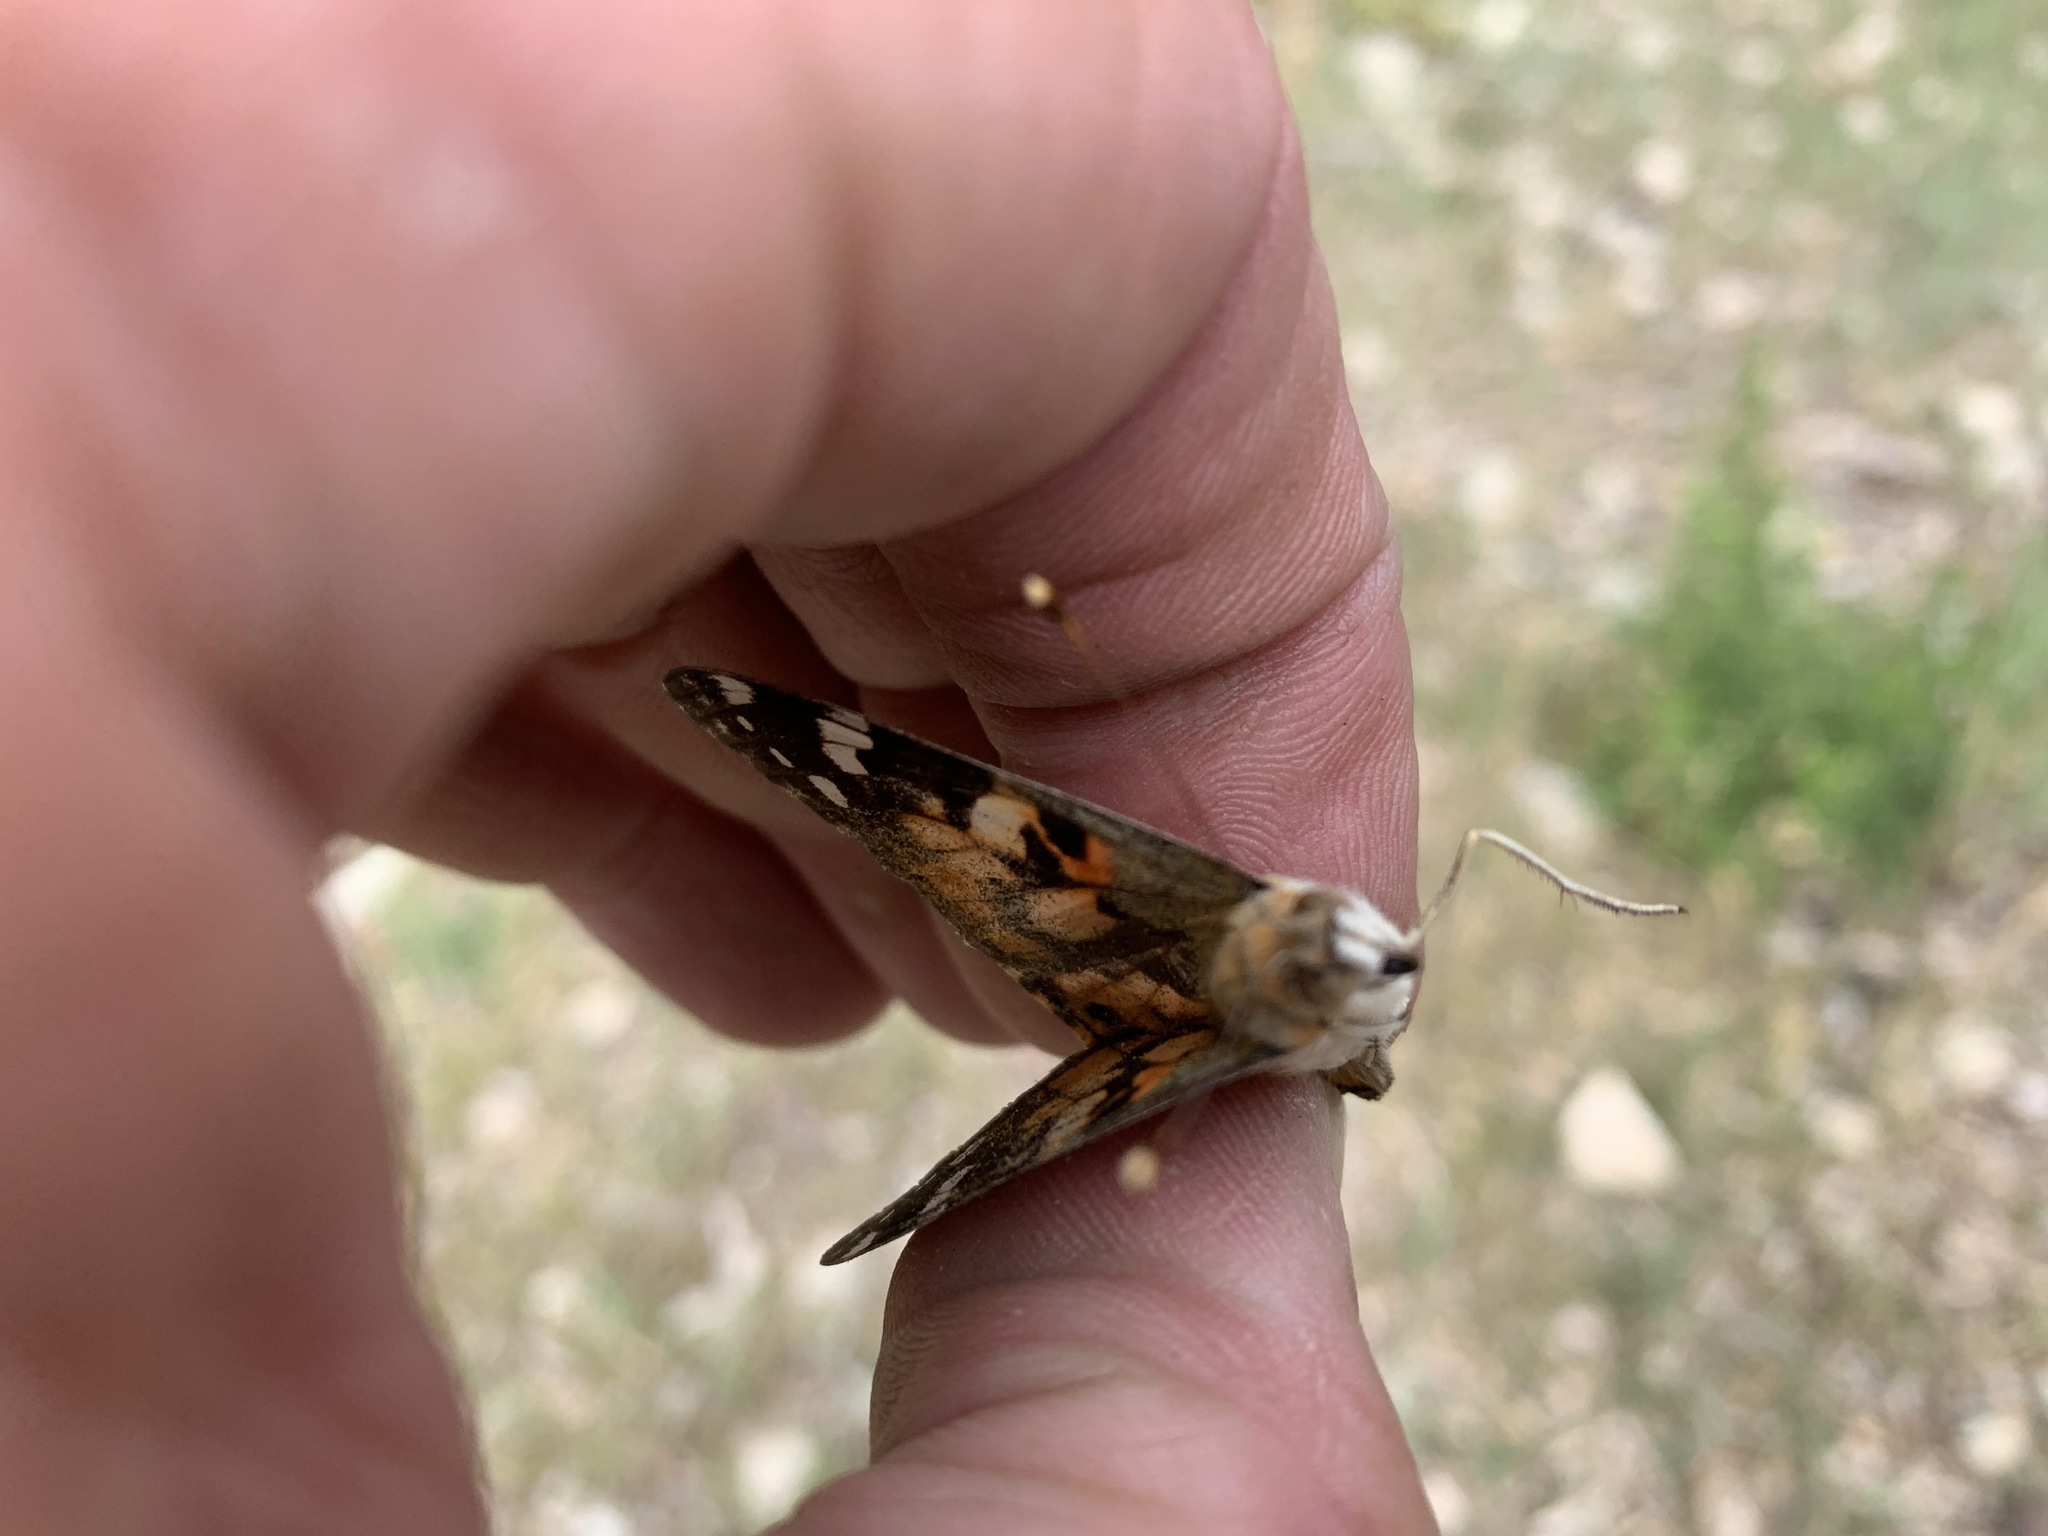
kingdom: Animalia
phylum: Arthropoda
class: Insecta
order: Lepidoptera
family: Nymphalidae
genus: Vanessa
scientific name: Vanessa cardui
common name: Painted lady
